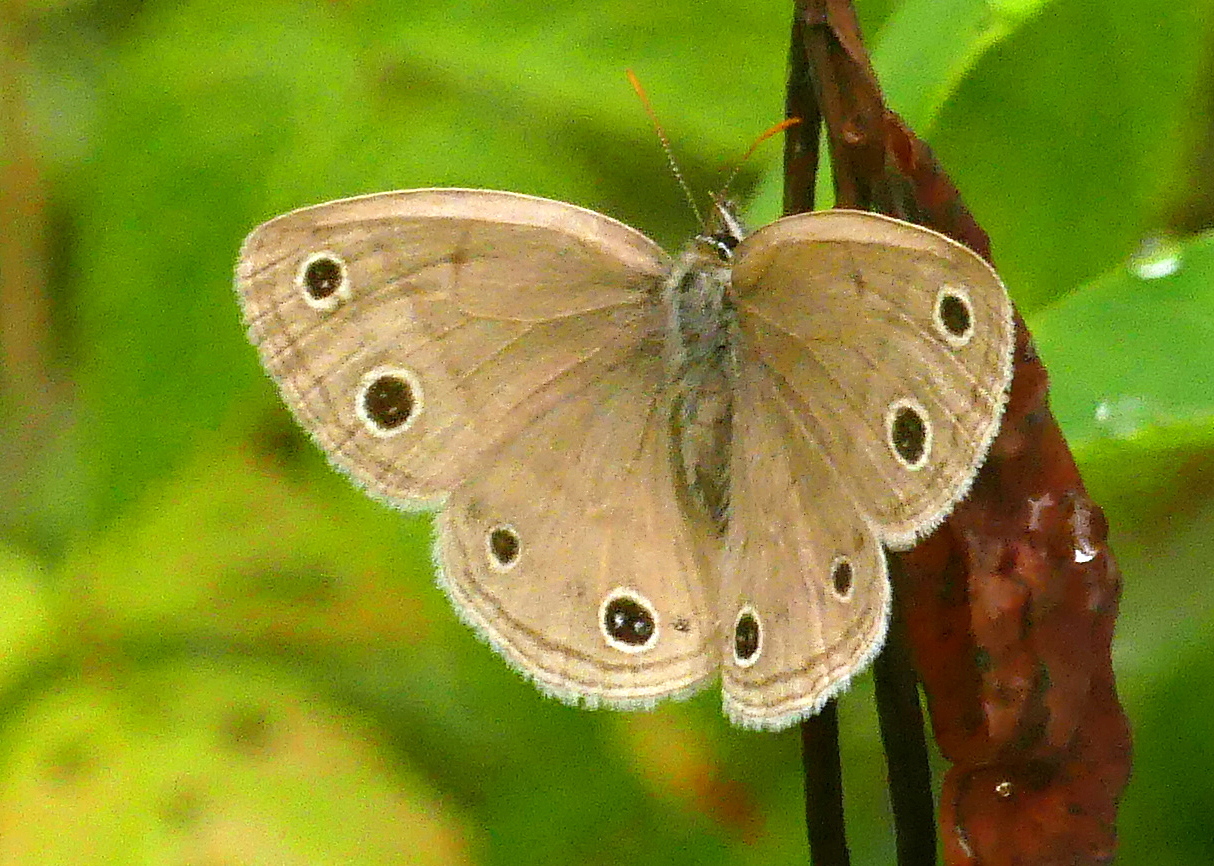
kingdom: Animalia
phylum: Arthropoda
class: Insecta
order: Lepidoptera
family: Nymphalidae
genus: Euptychia
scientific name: Euptychia cymela
